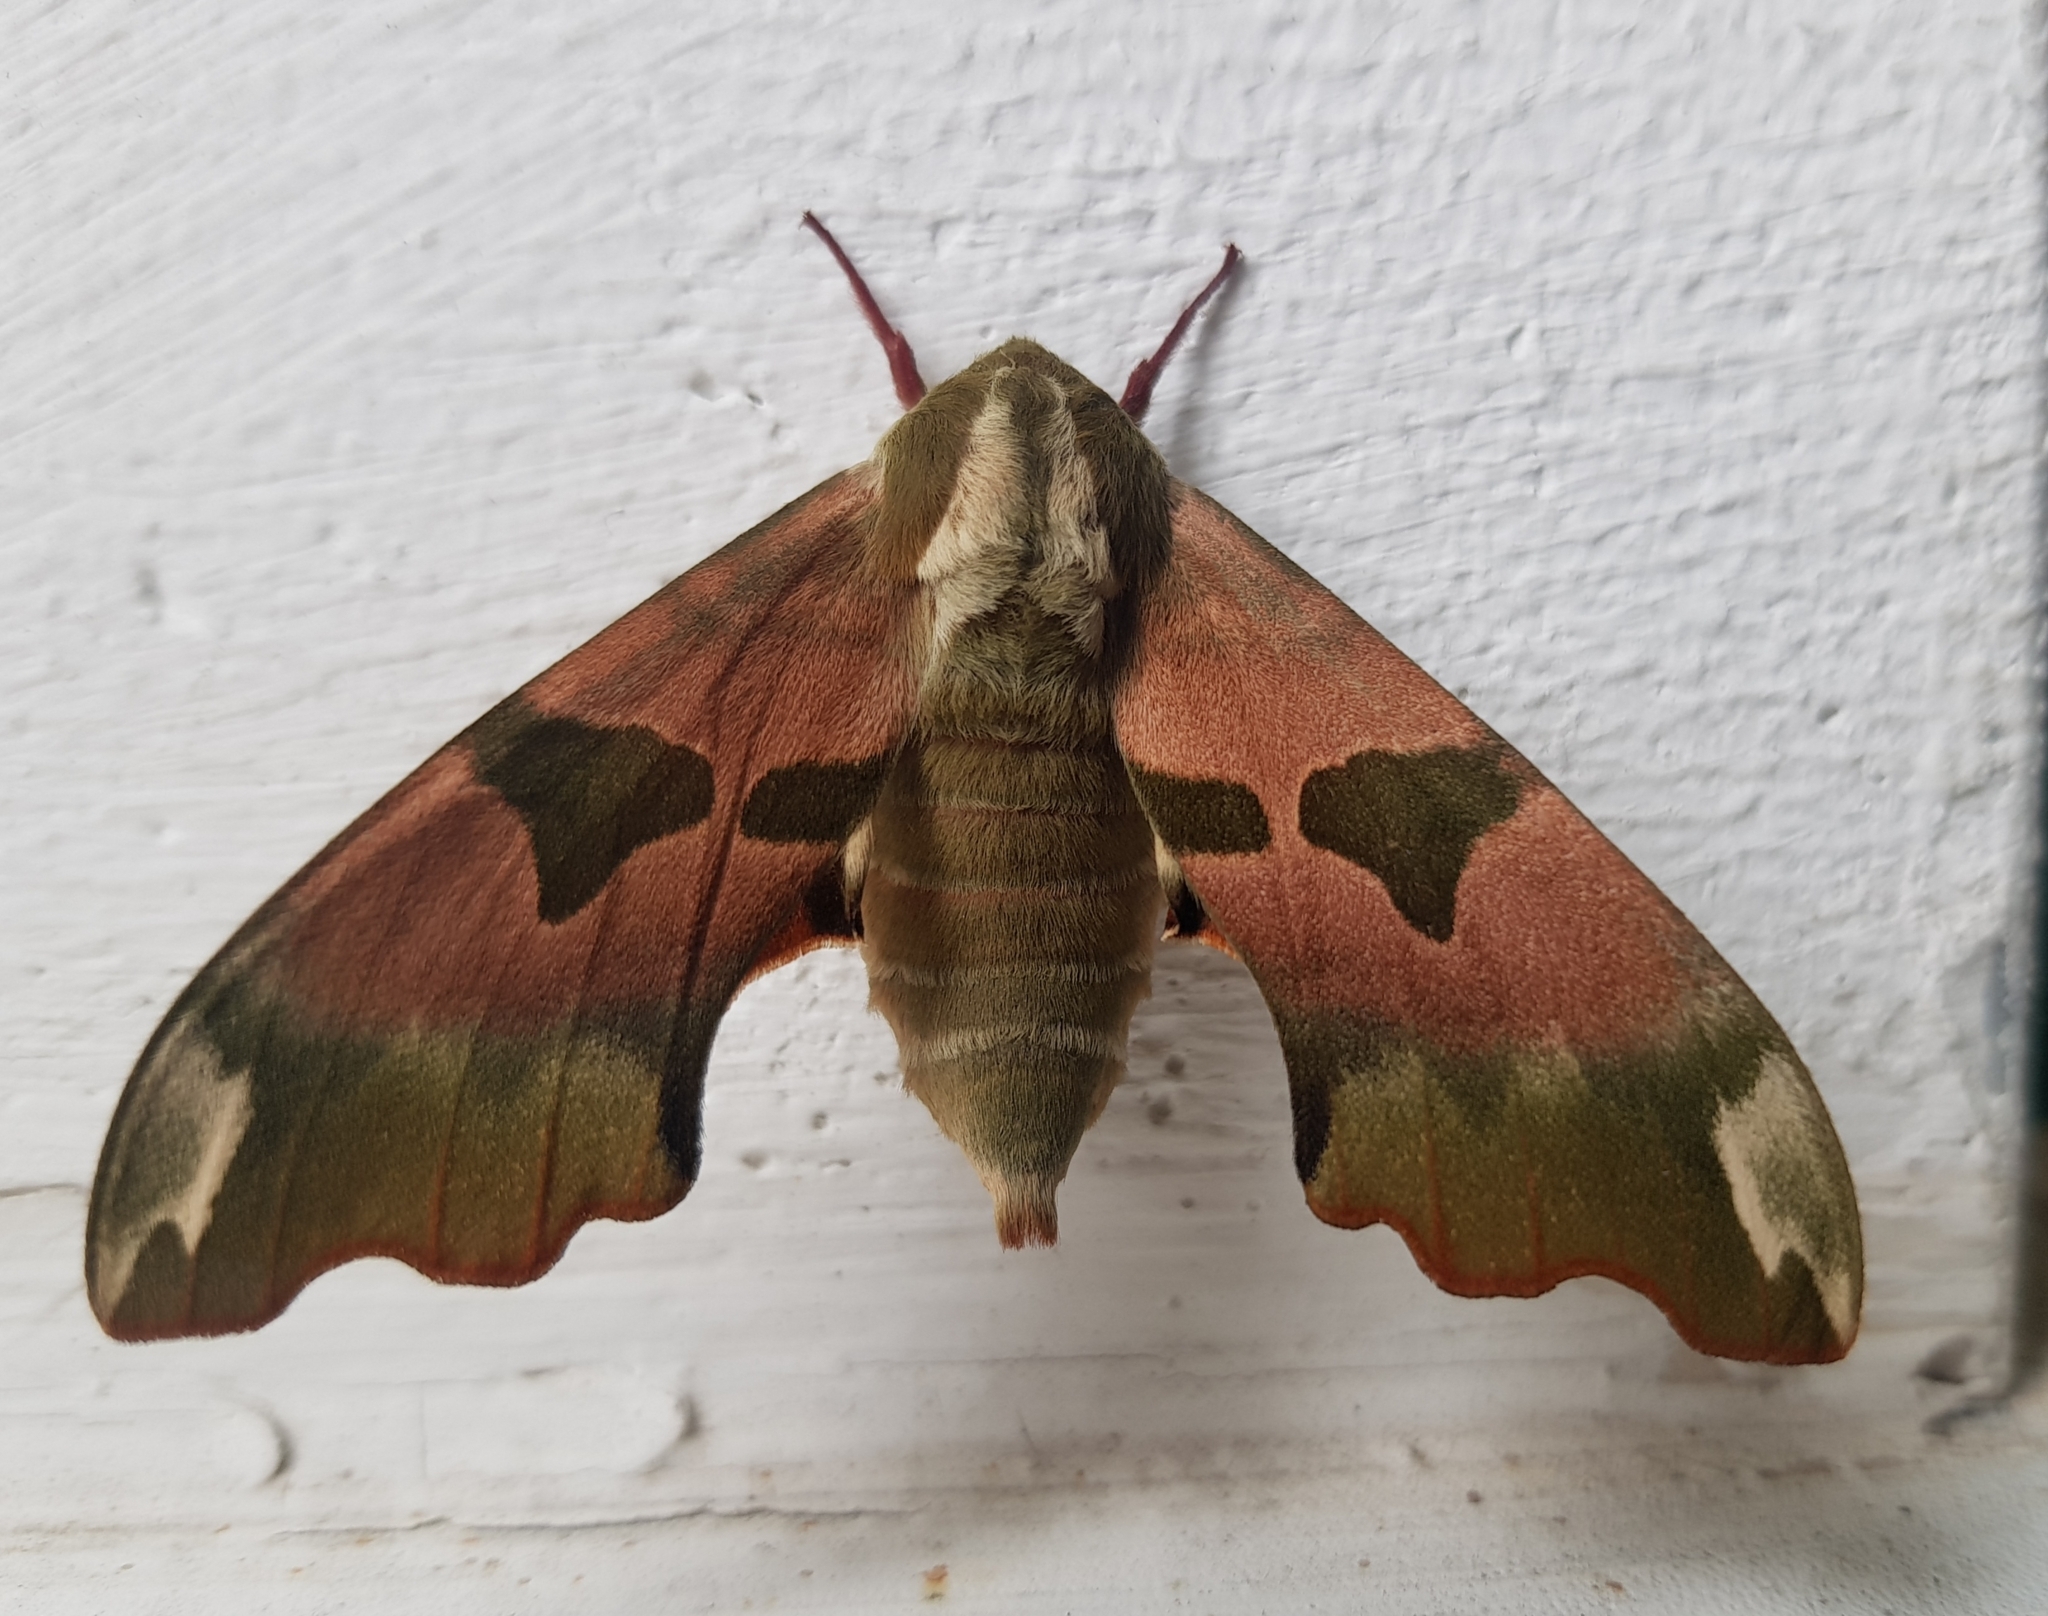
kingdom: Animalia
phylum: Arthropoda
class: Insecta
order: Lepidoptera
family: Sphingidae
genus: Mimas
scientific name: Mimas tiliae
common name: Lime hawk-moth
